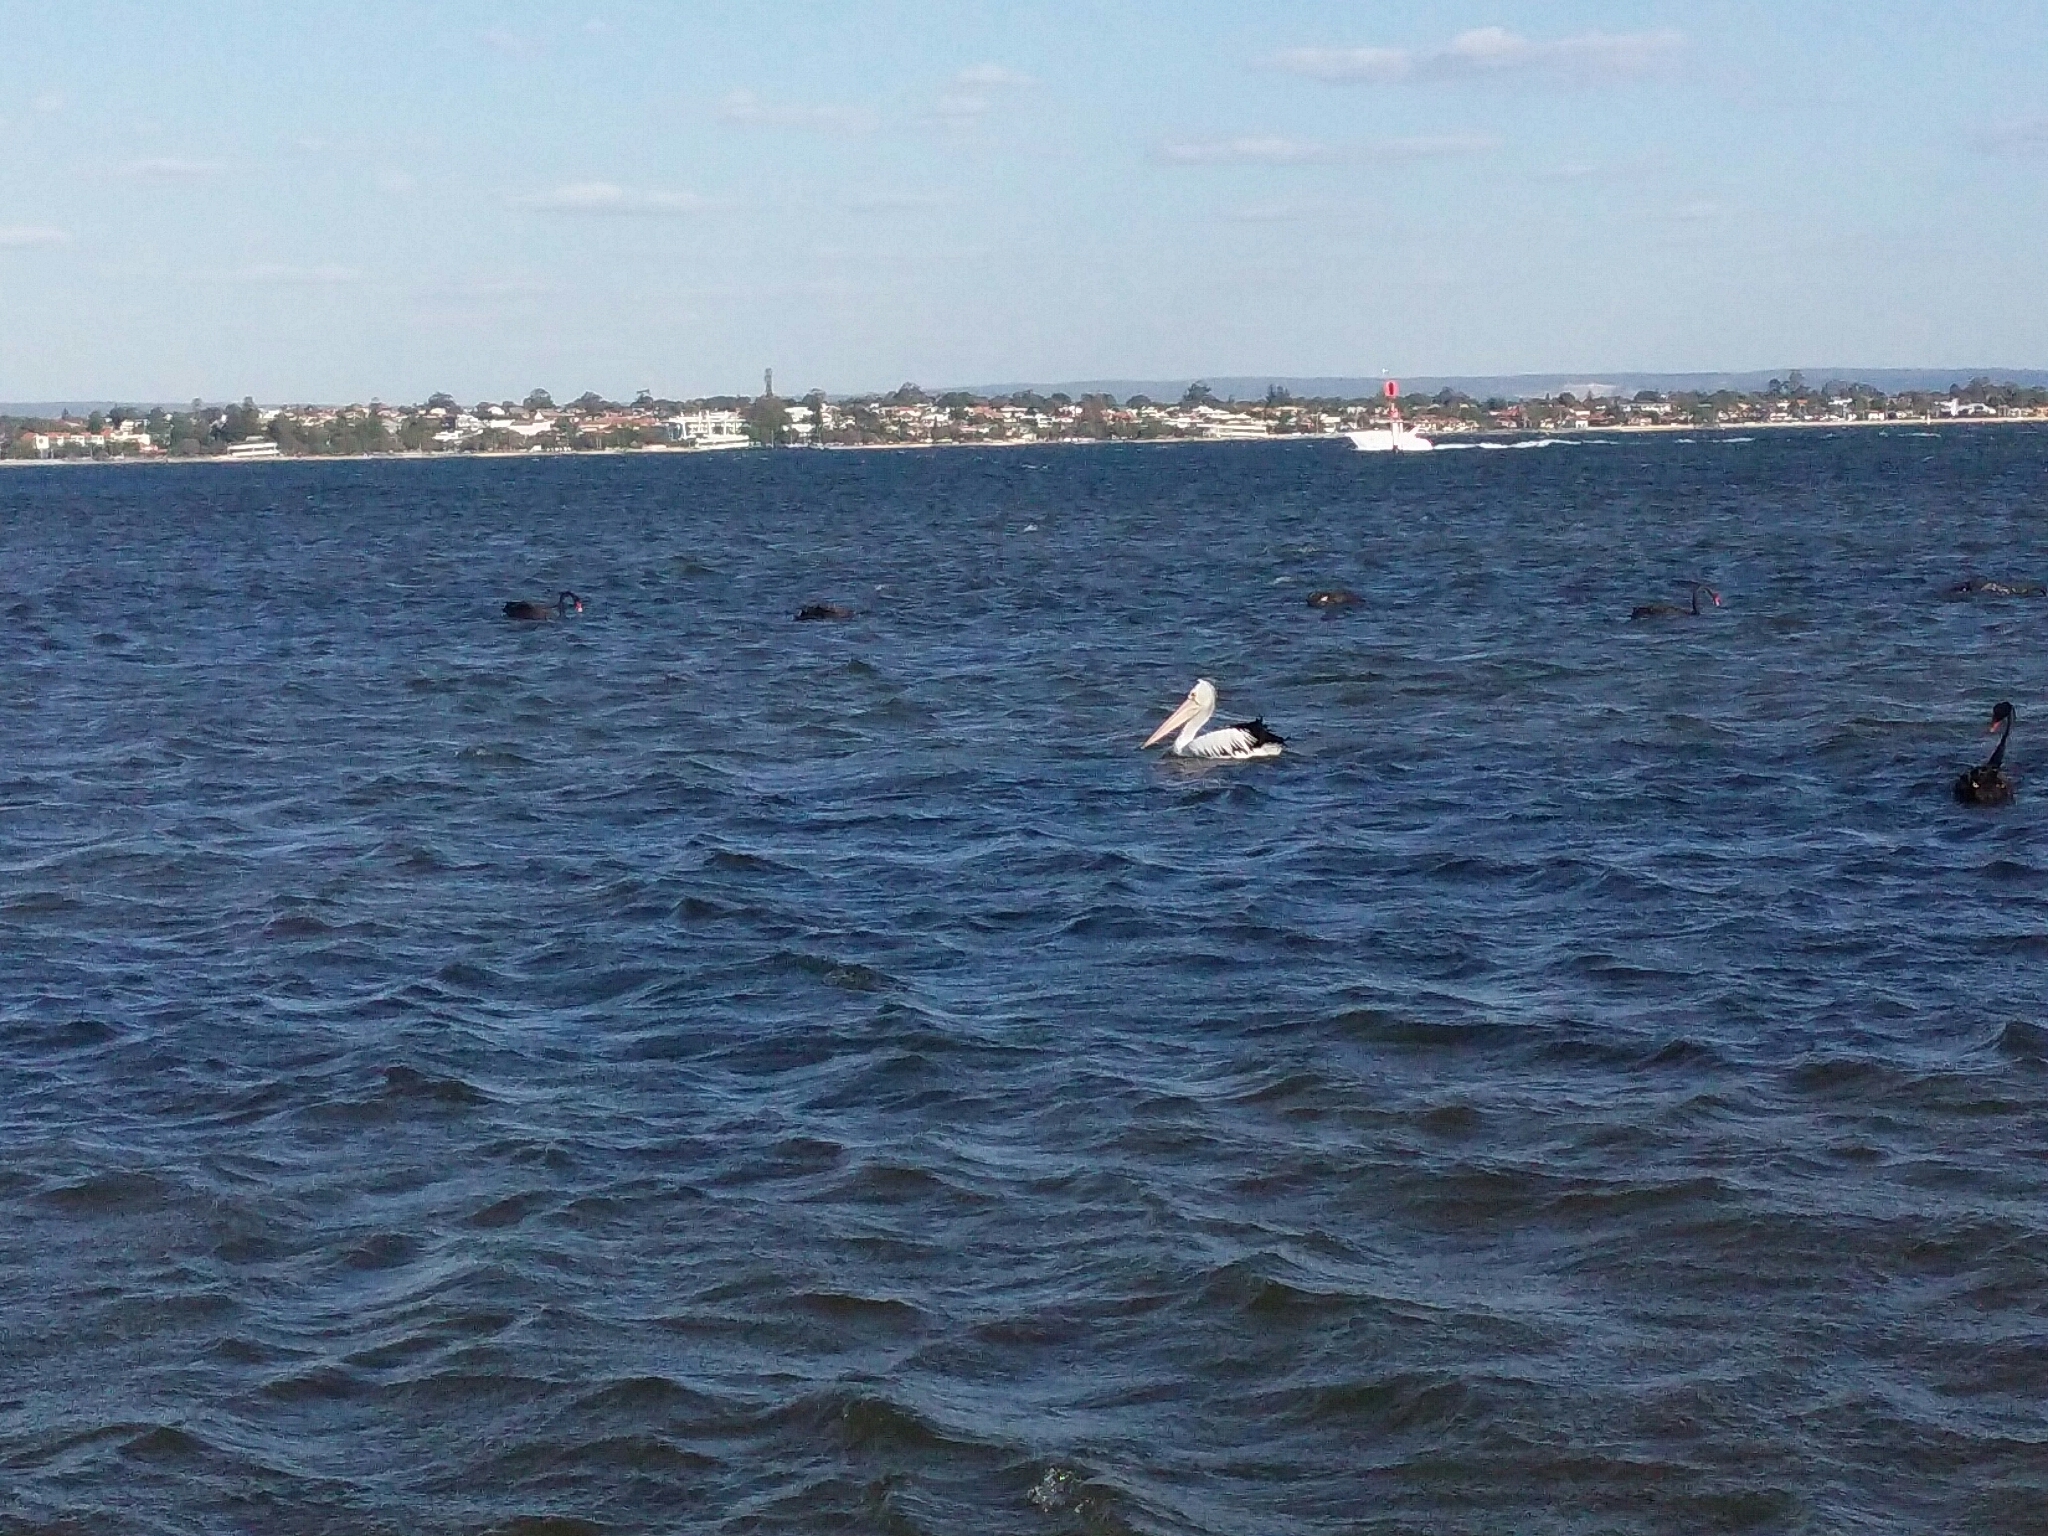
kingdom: Animalia
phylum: Chordata
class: Aves
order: Pelecaniformes
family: Pelecanidae
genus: Pelecanus
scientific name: Pelecanus conspicillatus
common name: Australian pelican
